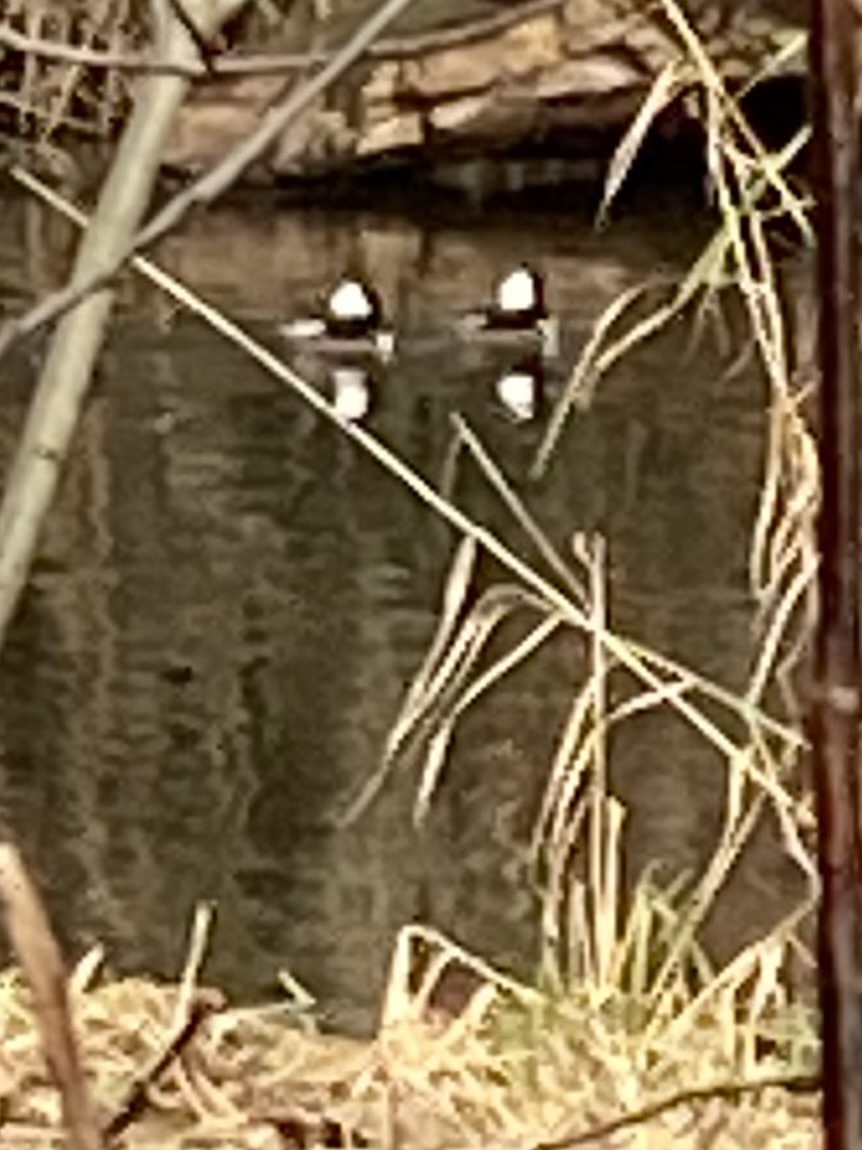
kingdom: Animalia
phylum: Chordata
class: Aves
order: Anseriformes
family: Anatidae
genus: Lophodytes
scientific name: Lophodytes cucullatus
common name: Hooded merganser
